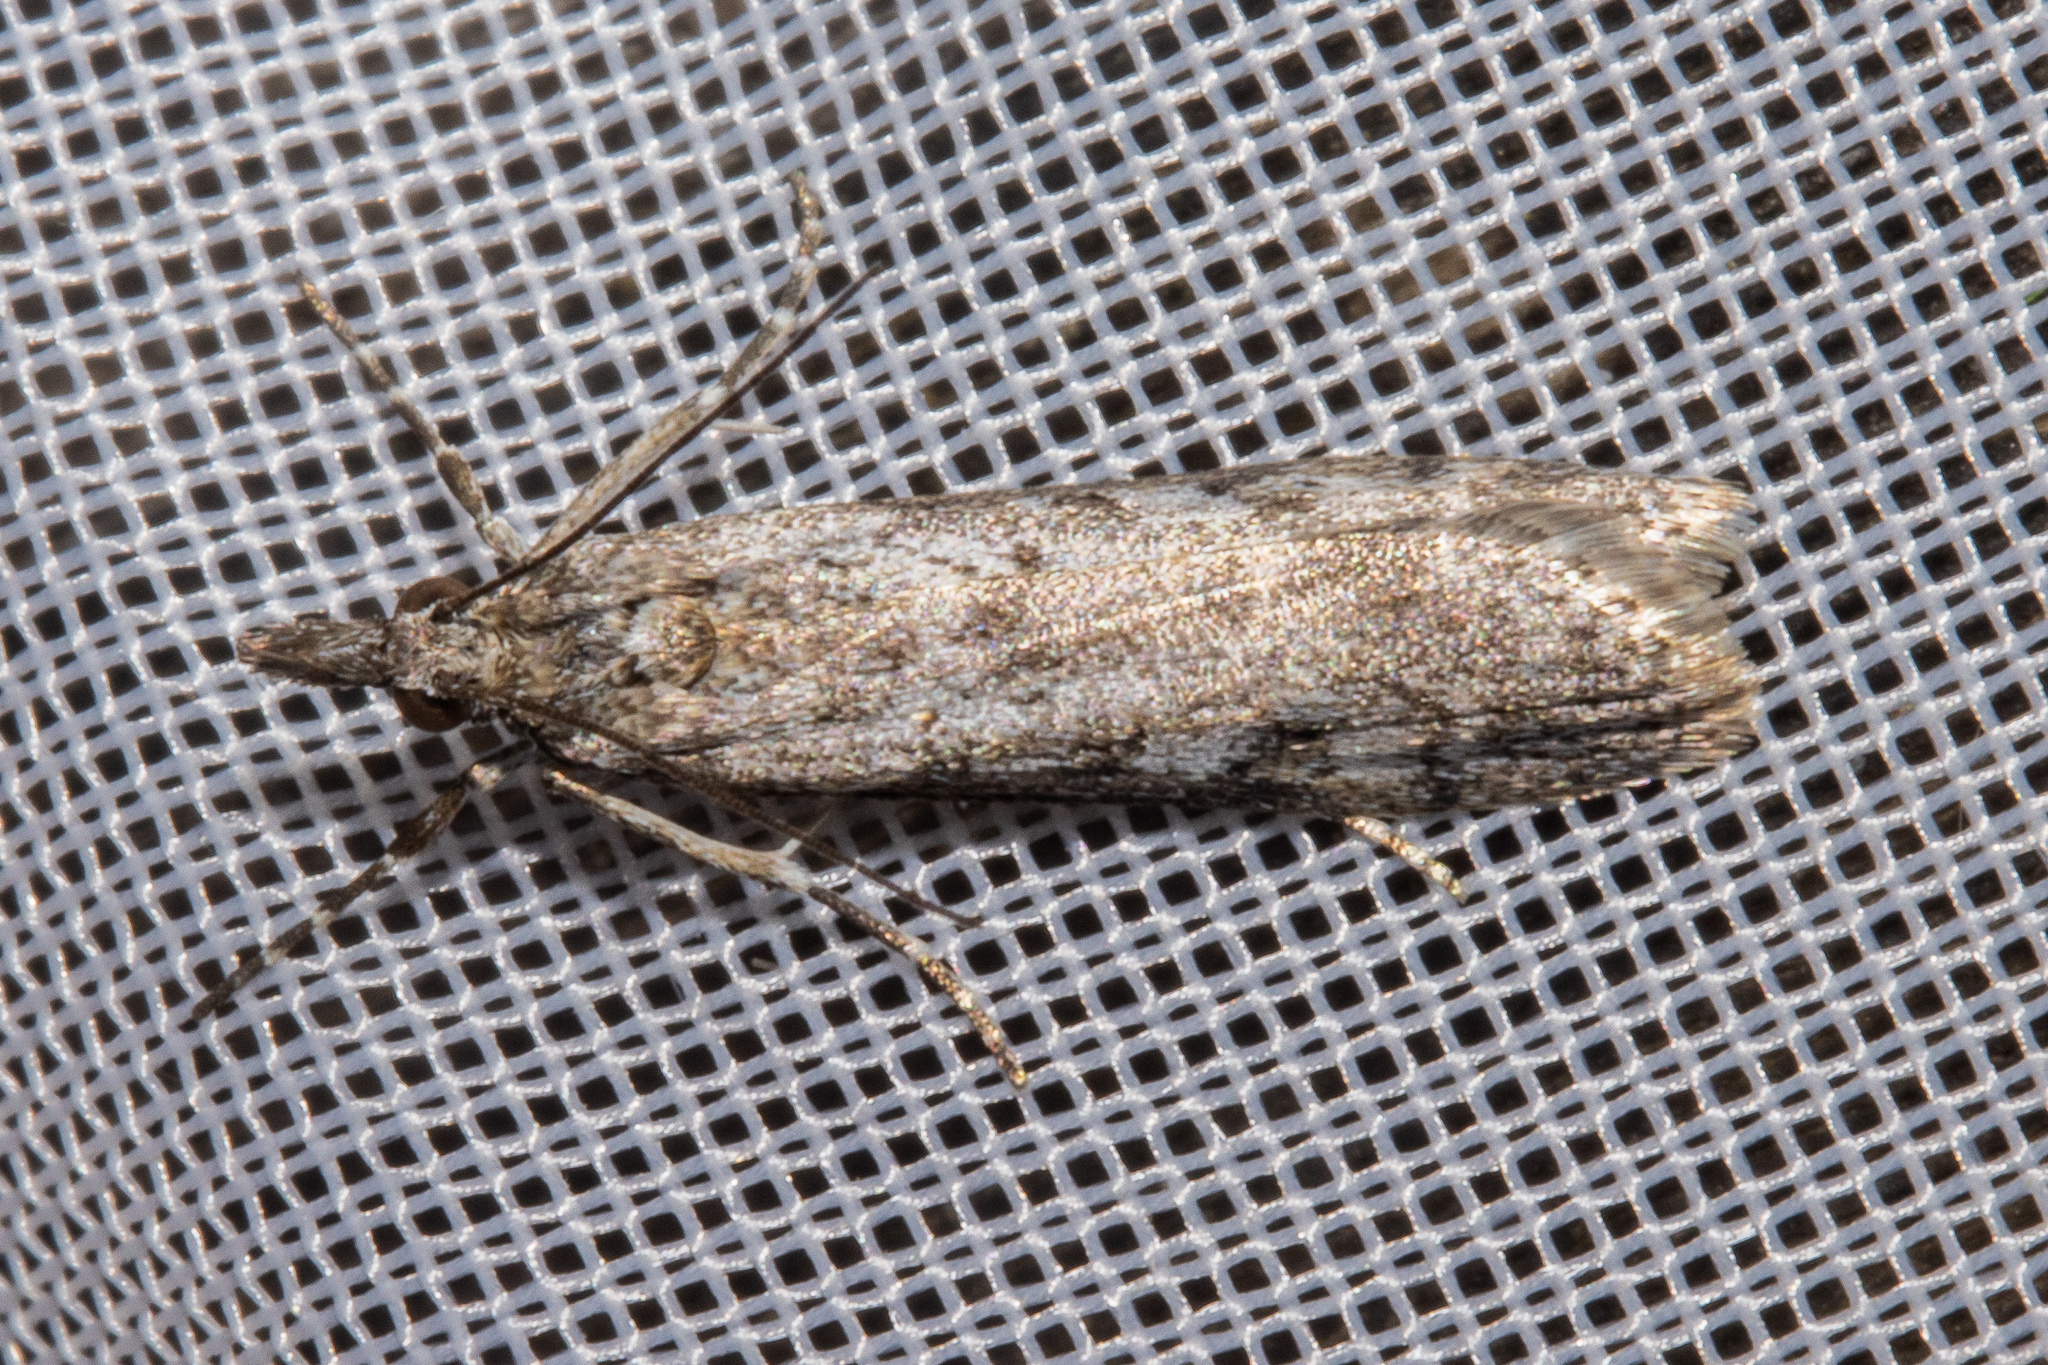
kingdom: Animalia
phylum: Arthropoda
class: Insecta
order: Lepidoptera
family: Crambidae
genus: Scoparia
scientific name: Scoparia contexta
